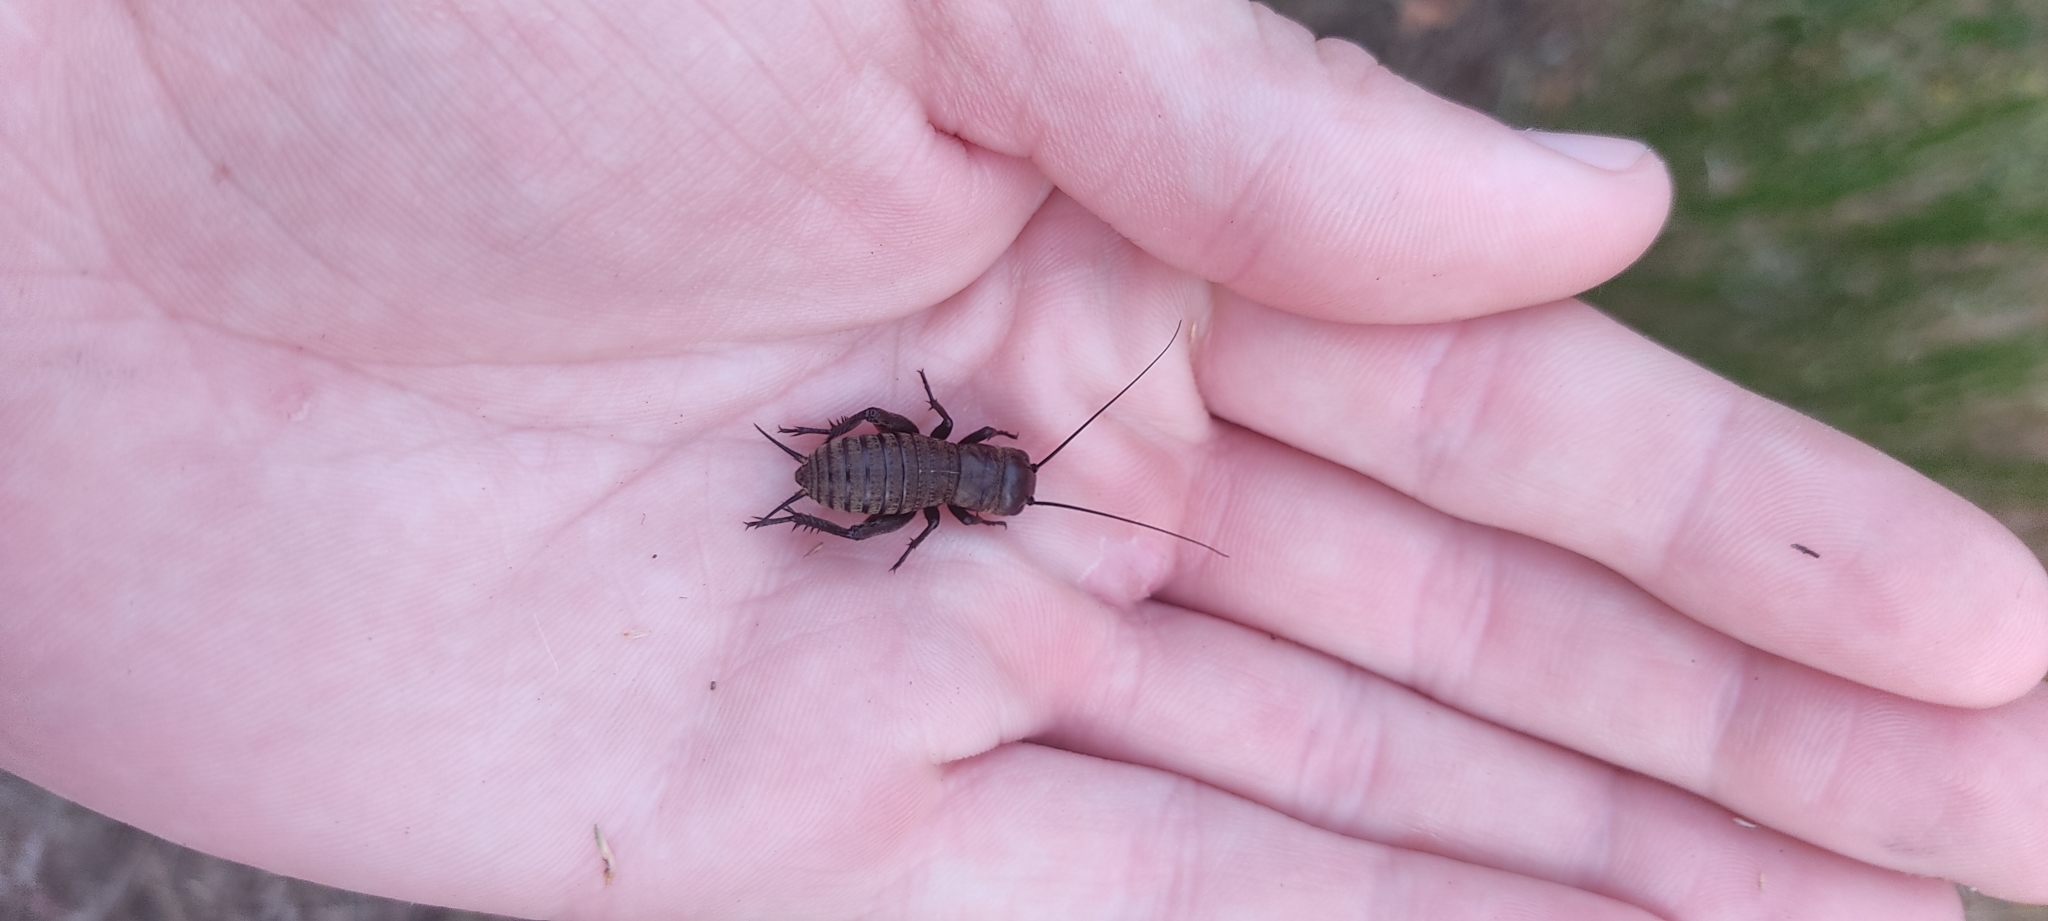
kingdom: Animalia
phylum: Arthropoda
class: Insecta
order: Orthoptera
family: Gryllidae
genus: Gryllus
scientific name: Gryllus campestris
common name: Field cricket
